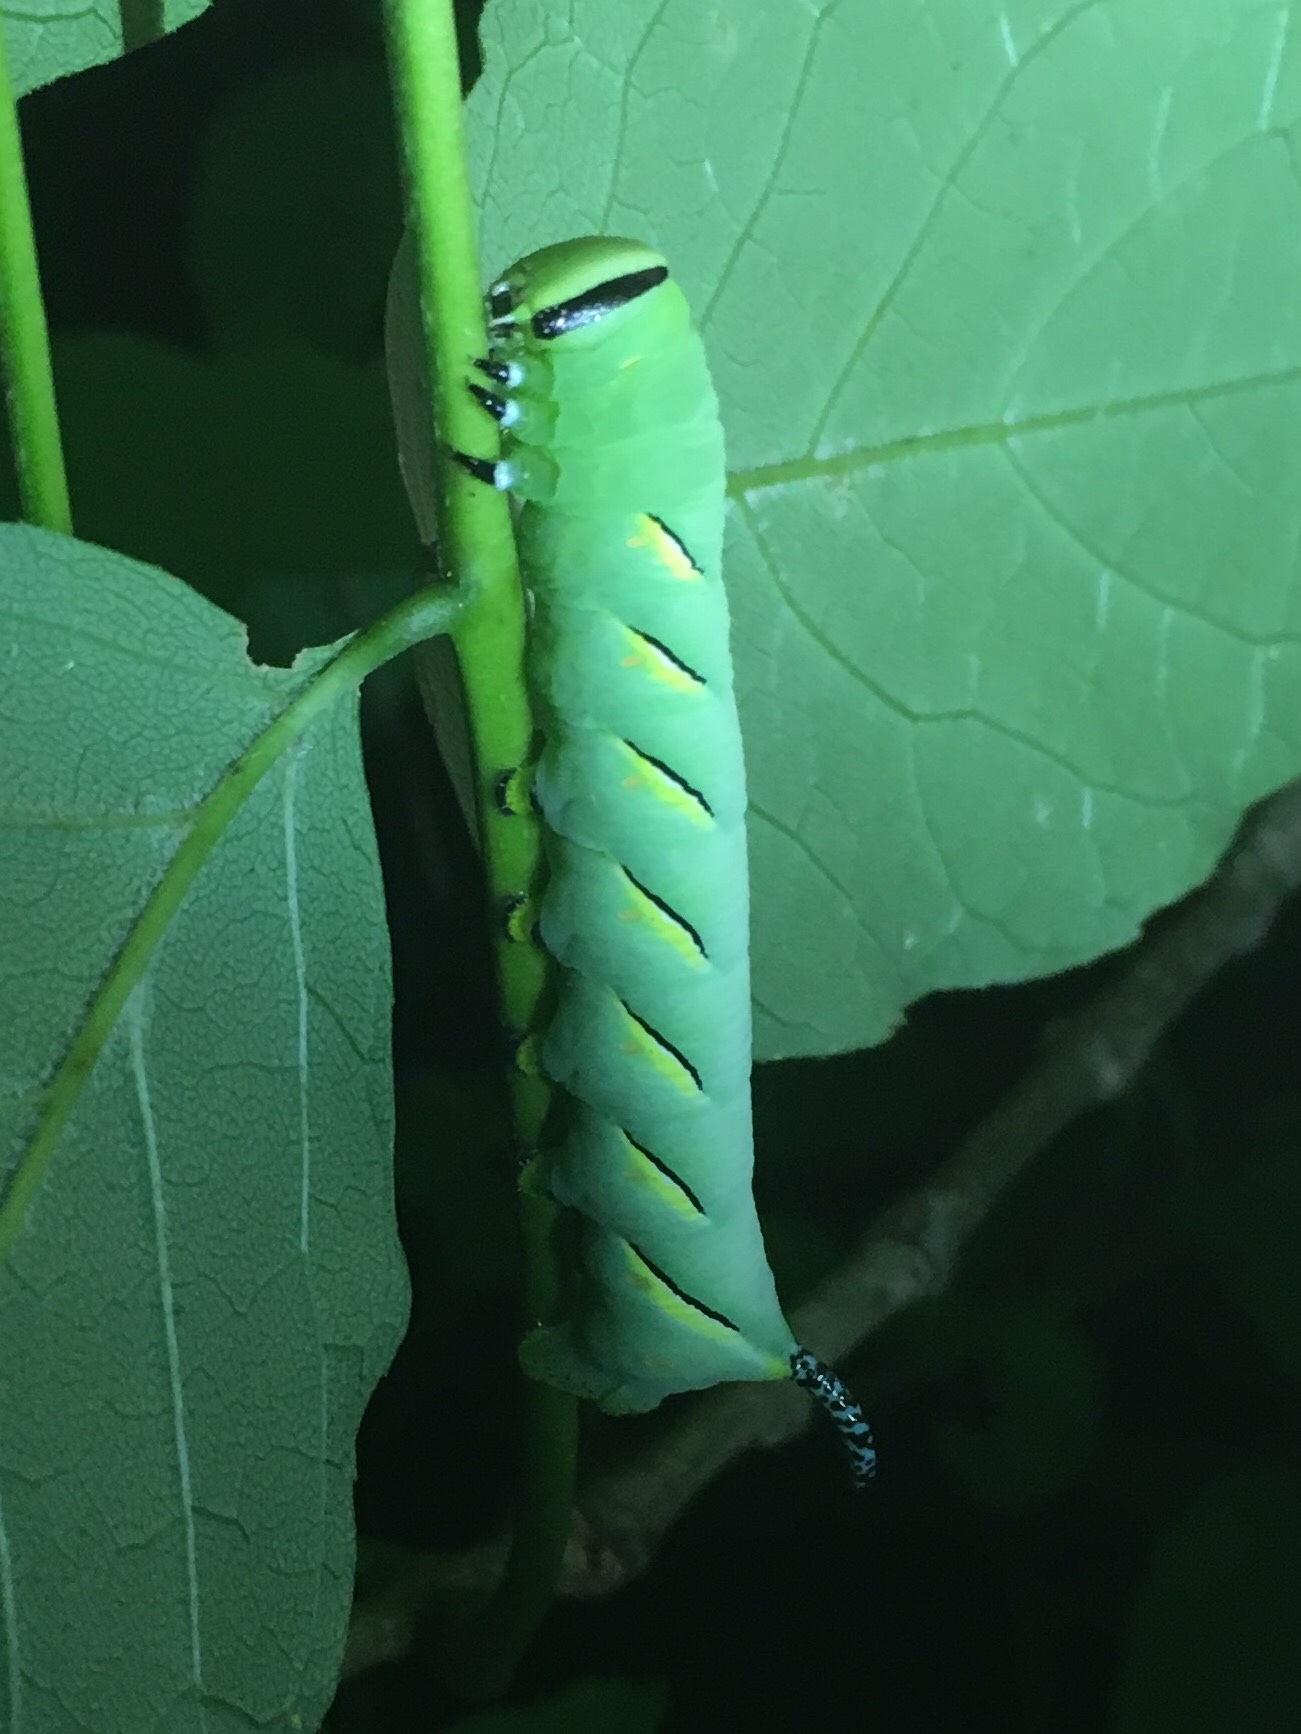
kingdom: Animalia
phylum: Arthropoda
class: Insecta
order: Lepidoptera
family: Sphingidae
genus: Sphinx
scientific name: Sphinx kalmiae
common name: Laurel sphinx
